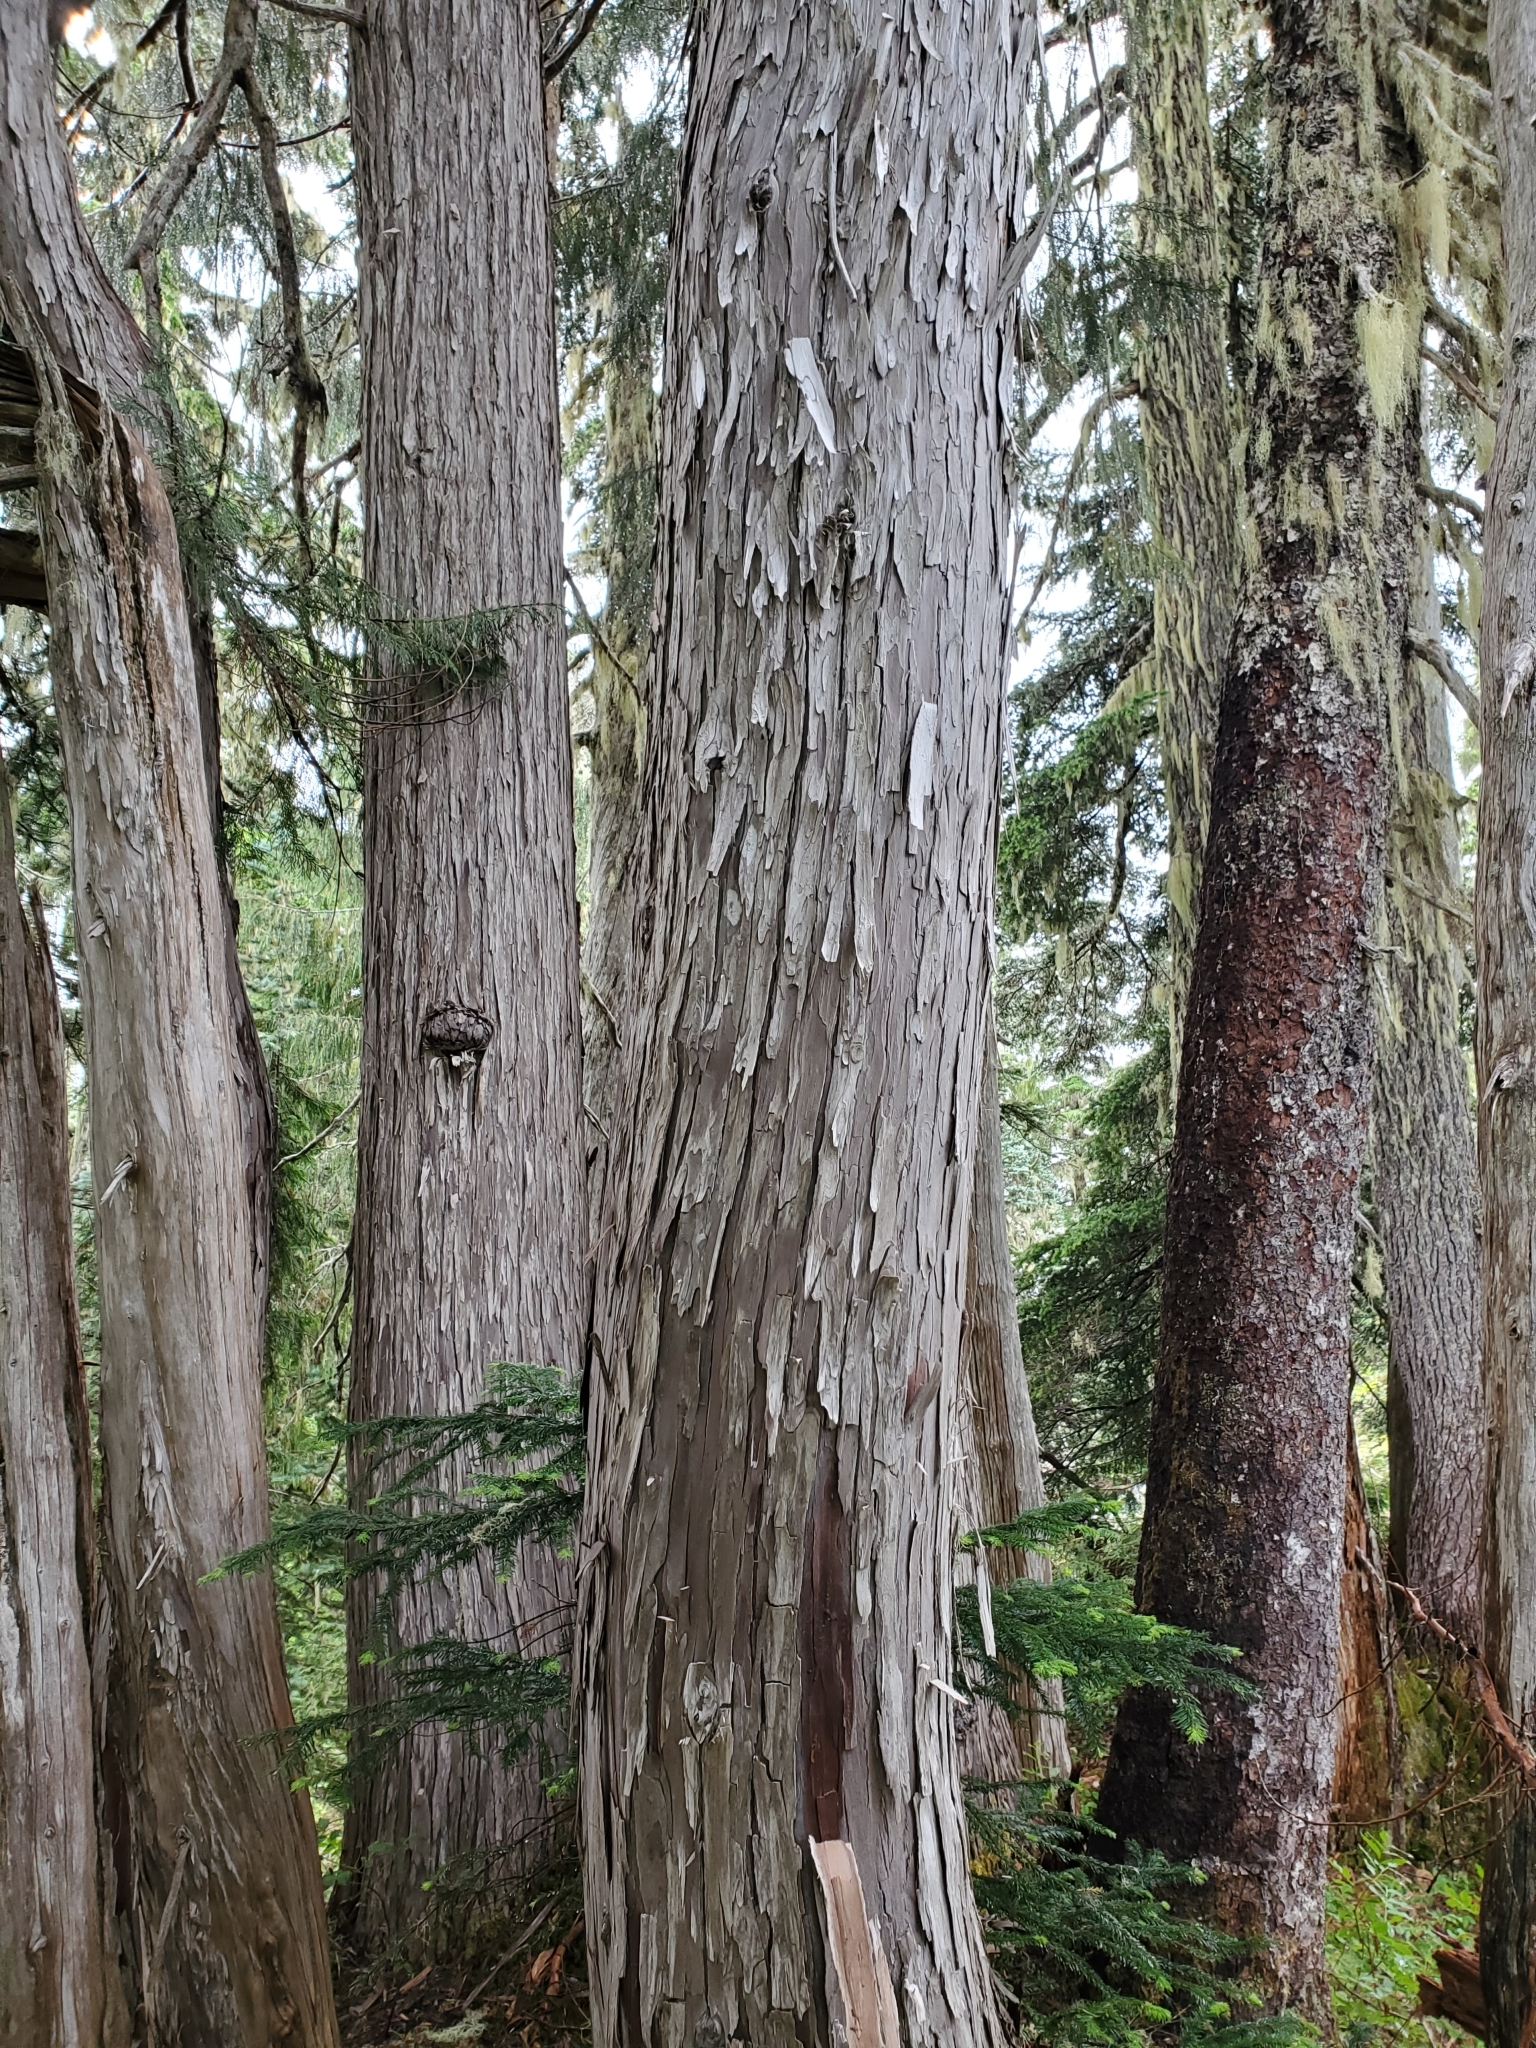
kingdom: Plantae
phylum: Tracheophyta
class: Pinopsida
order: Pinales
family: Cupressaceae
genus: Xanthocyparis
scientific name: Xanthocyparis nootkatensis
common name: Nootka cypress
